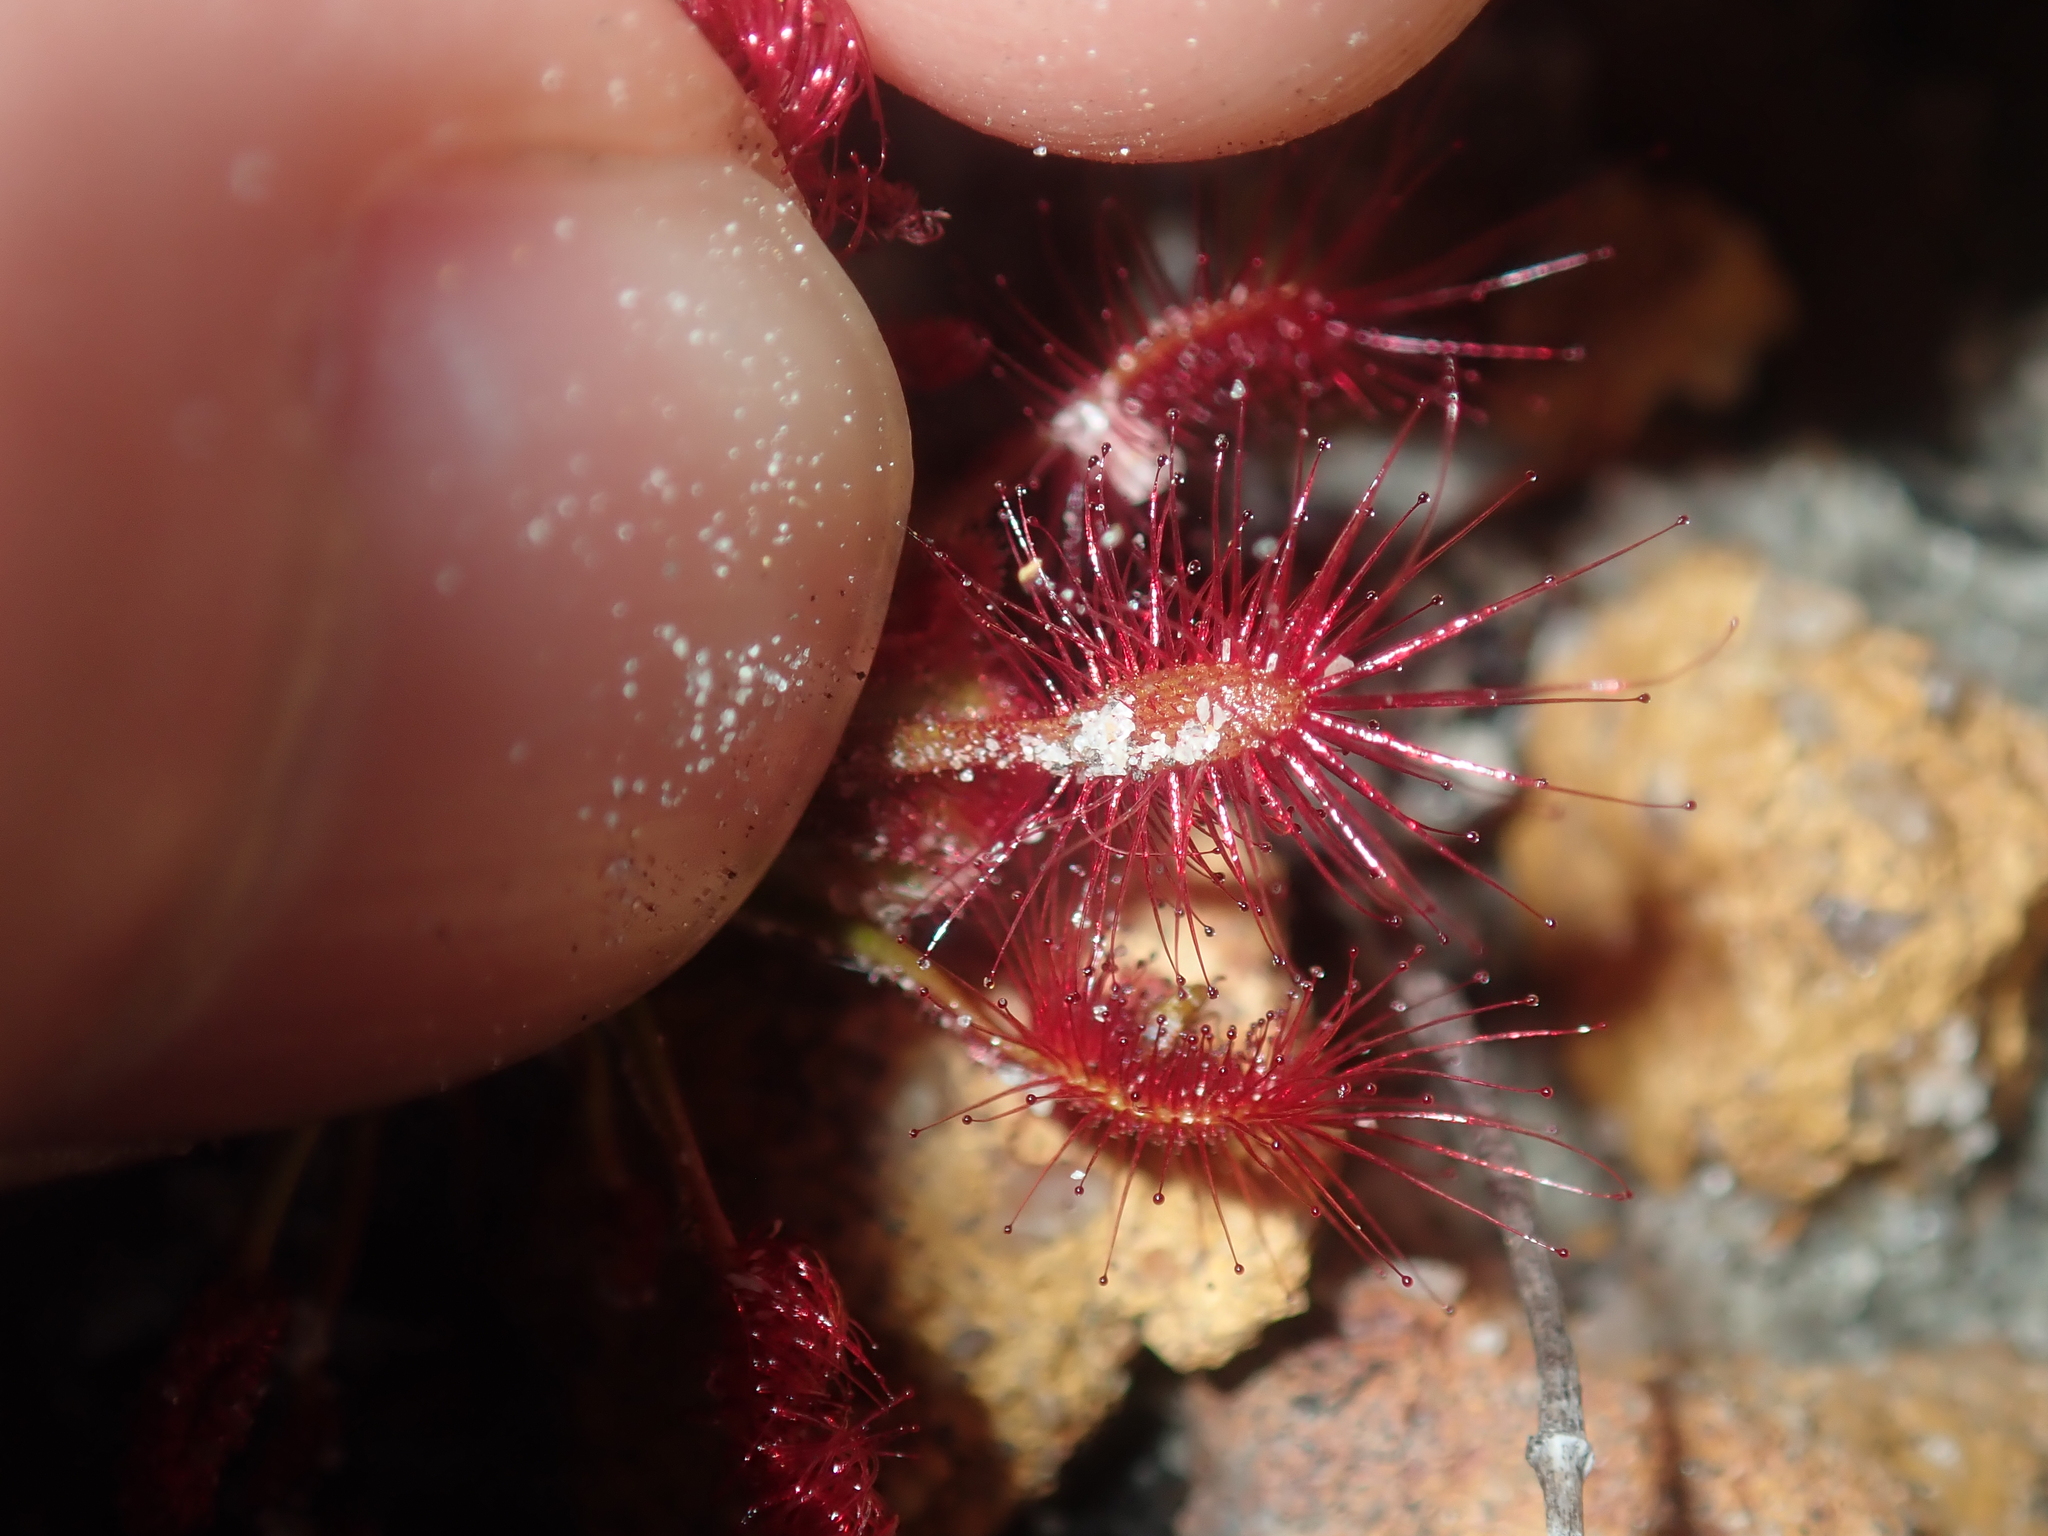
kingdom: Plantae
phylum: Tracheophyta
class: Magnoliopsida
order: Caryophyllales
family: Droseraceae
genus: Drosera
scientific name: Drosera barbigera
